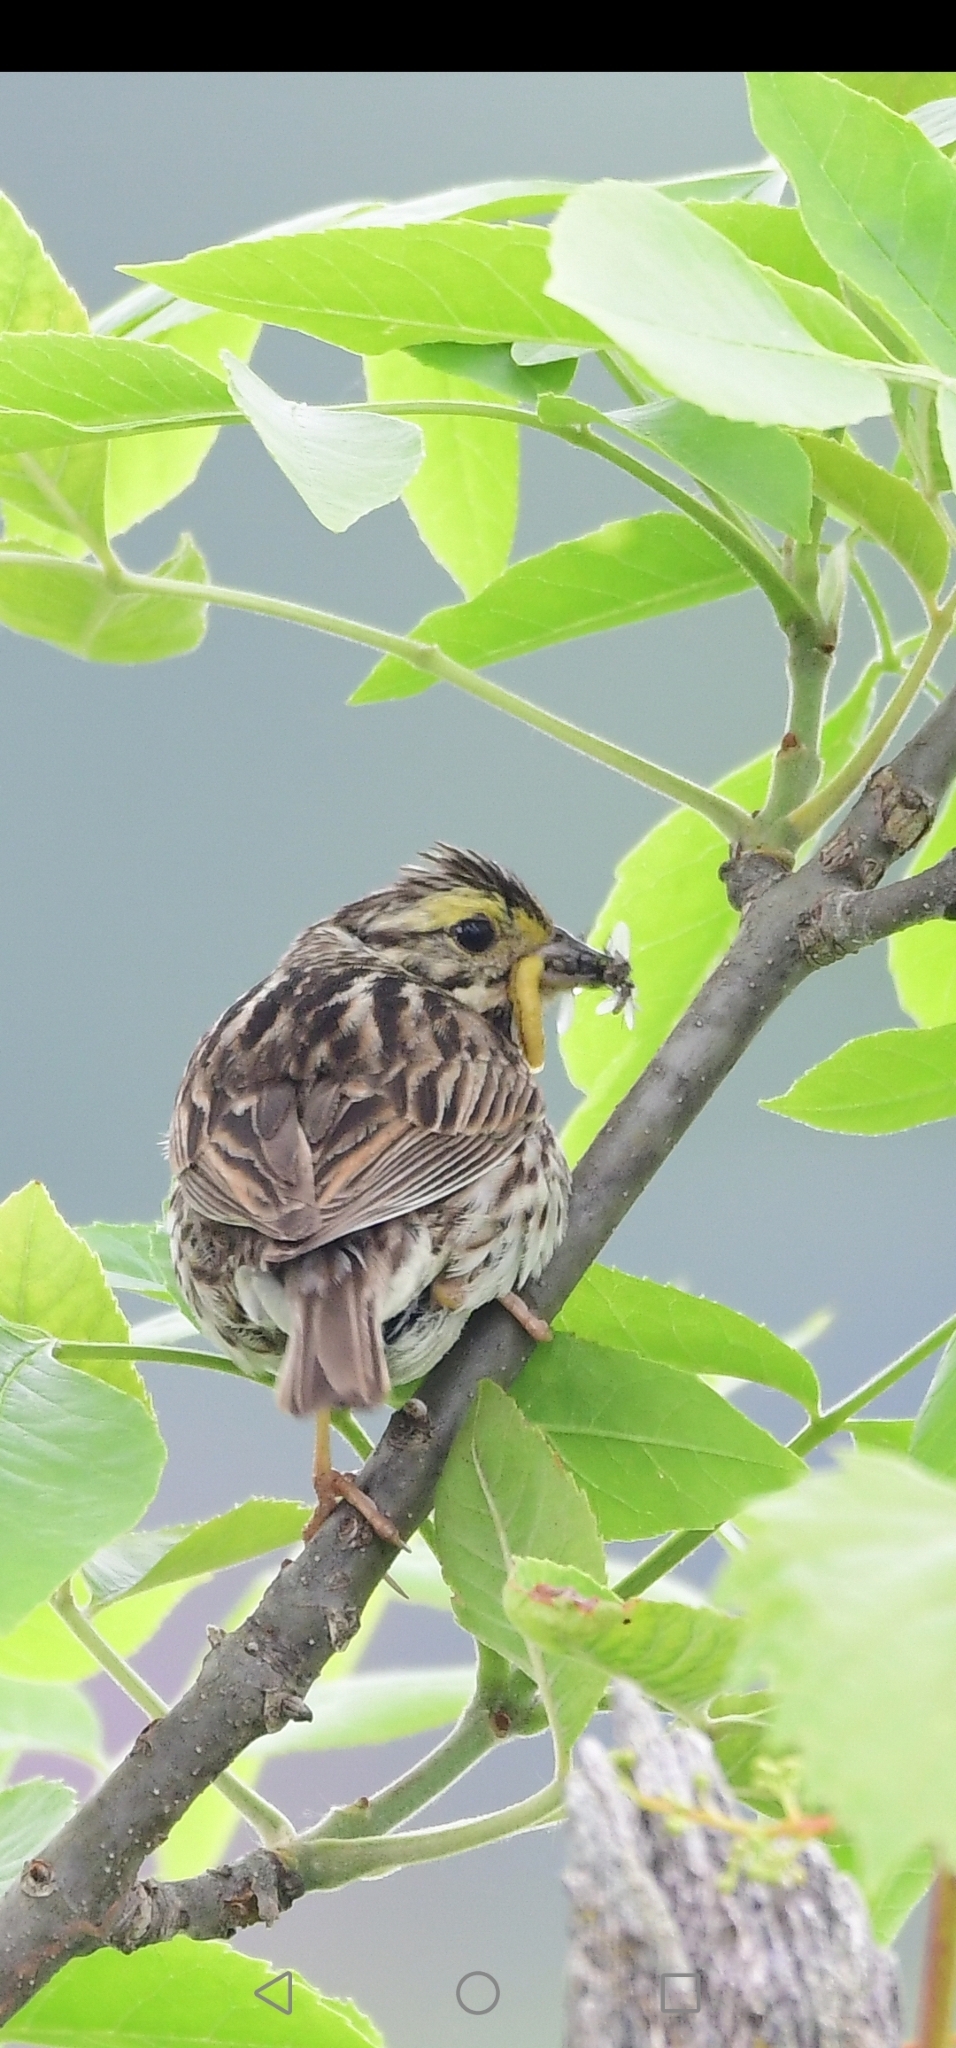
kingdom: Animalia
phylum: Chordata
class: Aves
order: Passeriformes
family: Passerellidae
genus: Passerculus
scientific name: Passerculus sandwichensis
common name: Savannah sparrow
